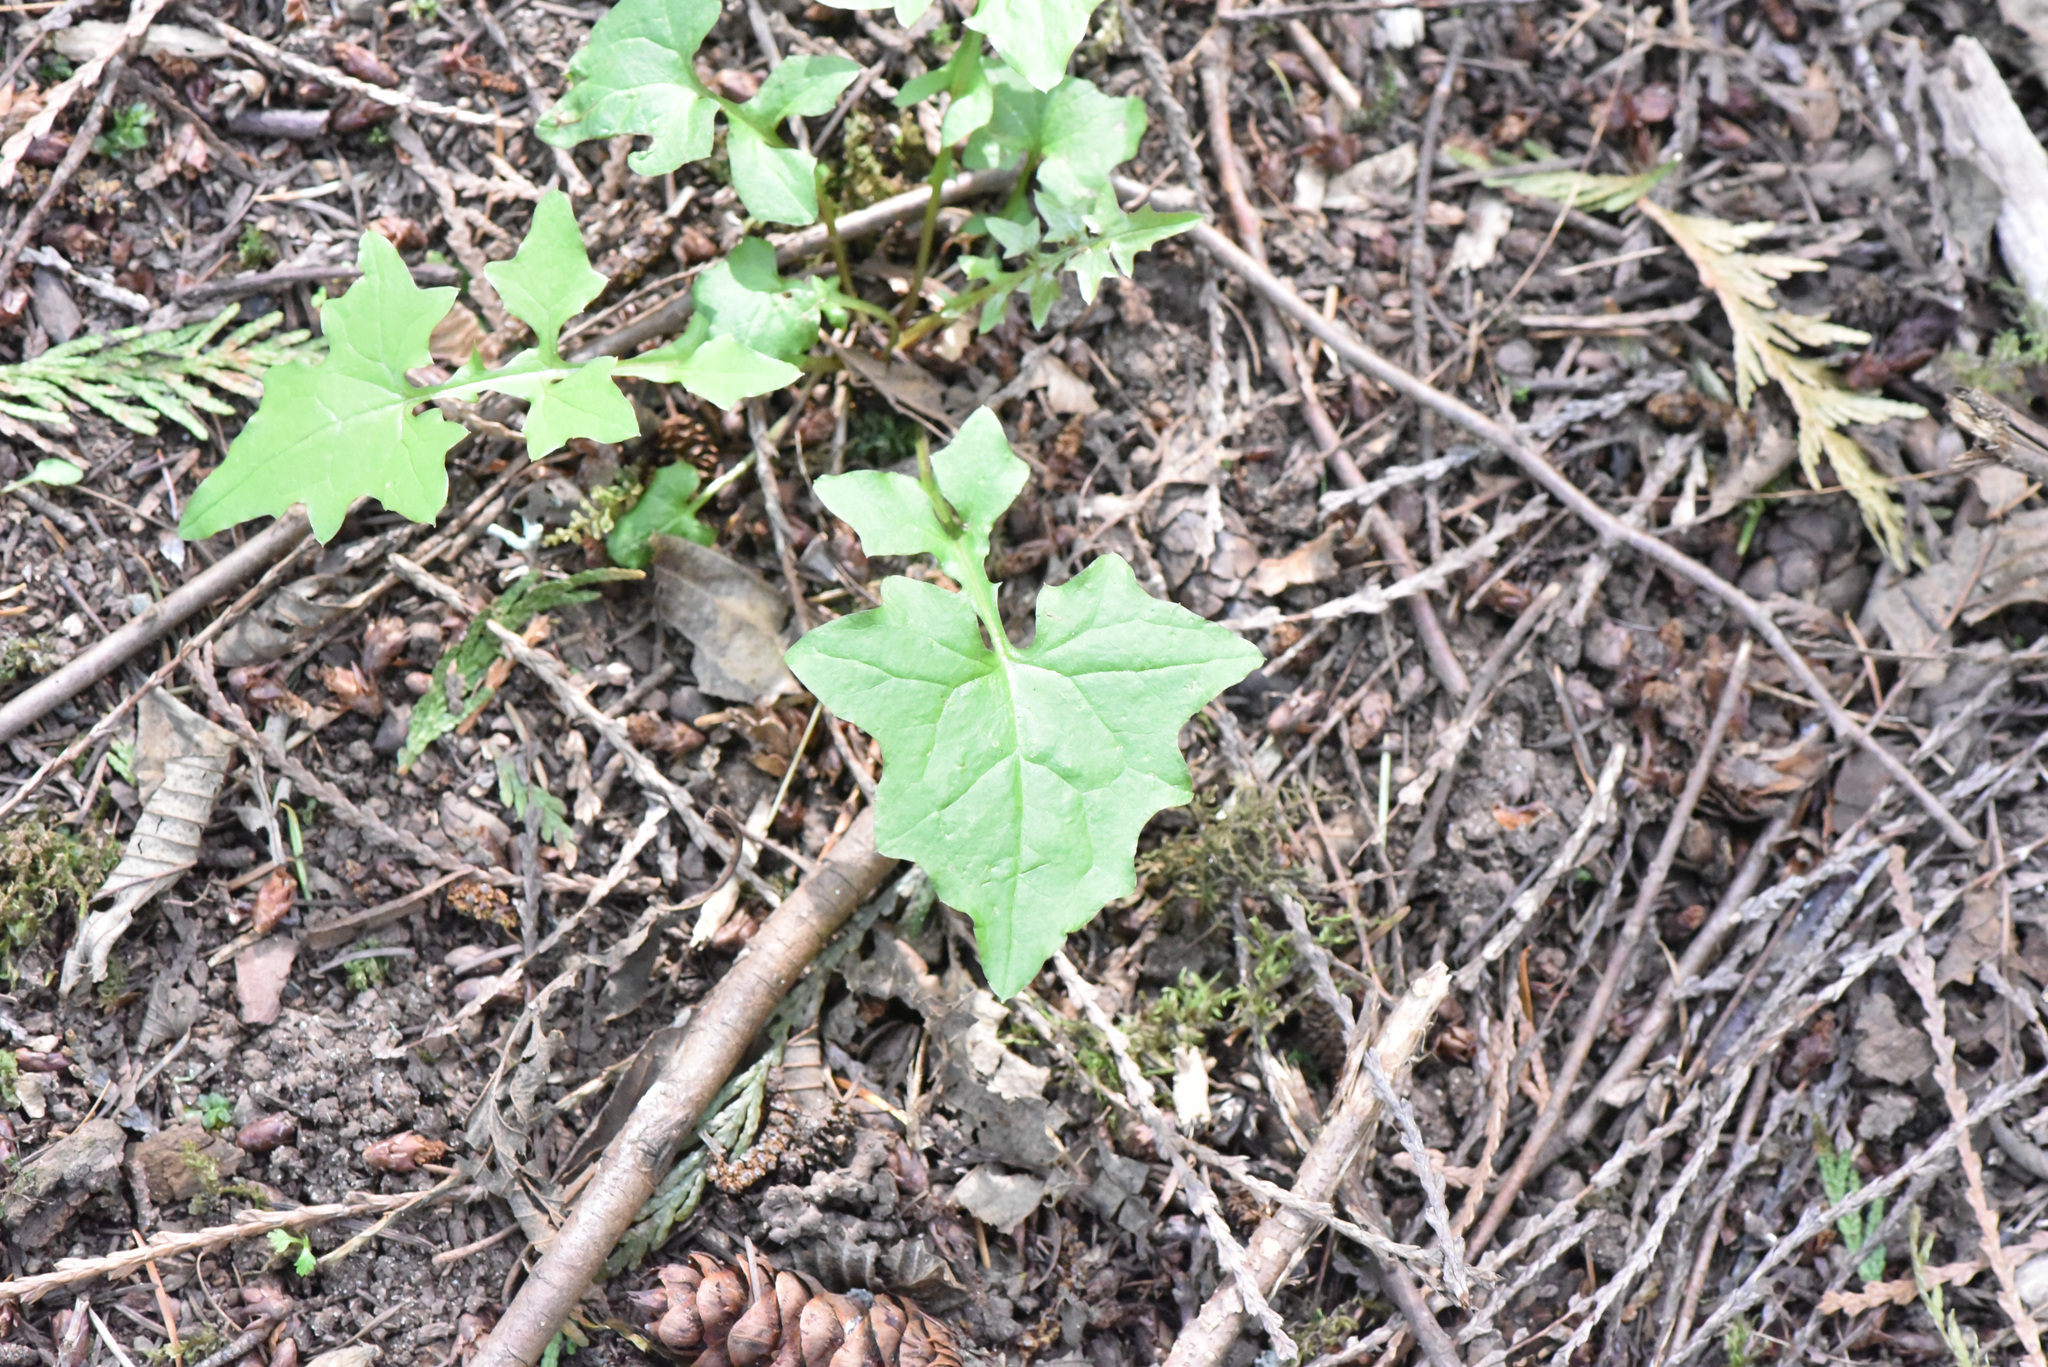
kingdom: Plantae
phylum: Tracheophyta
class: Magnoliopsida
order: Asterales
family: Asteraceae
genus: Mycelis
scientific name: Mycelis muralis
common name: Wall lettuce
